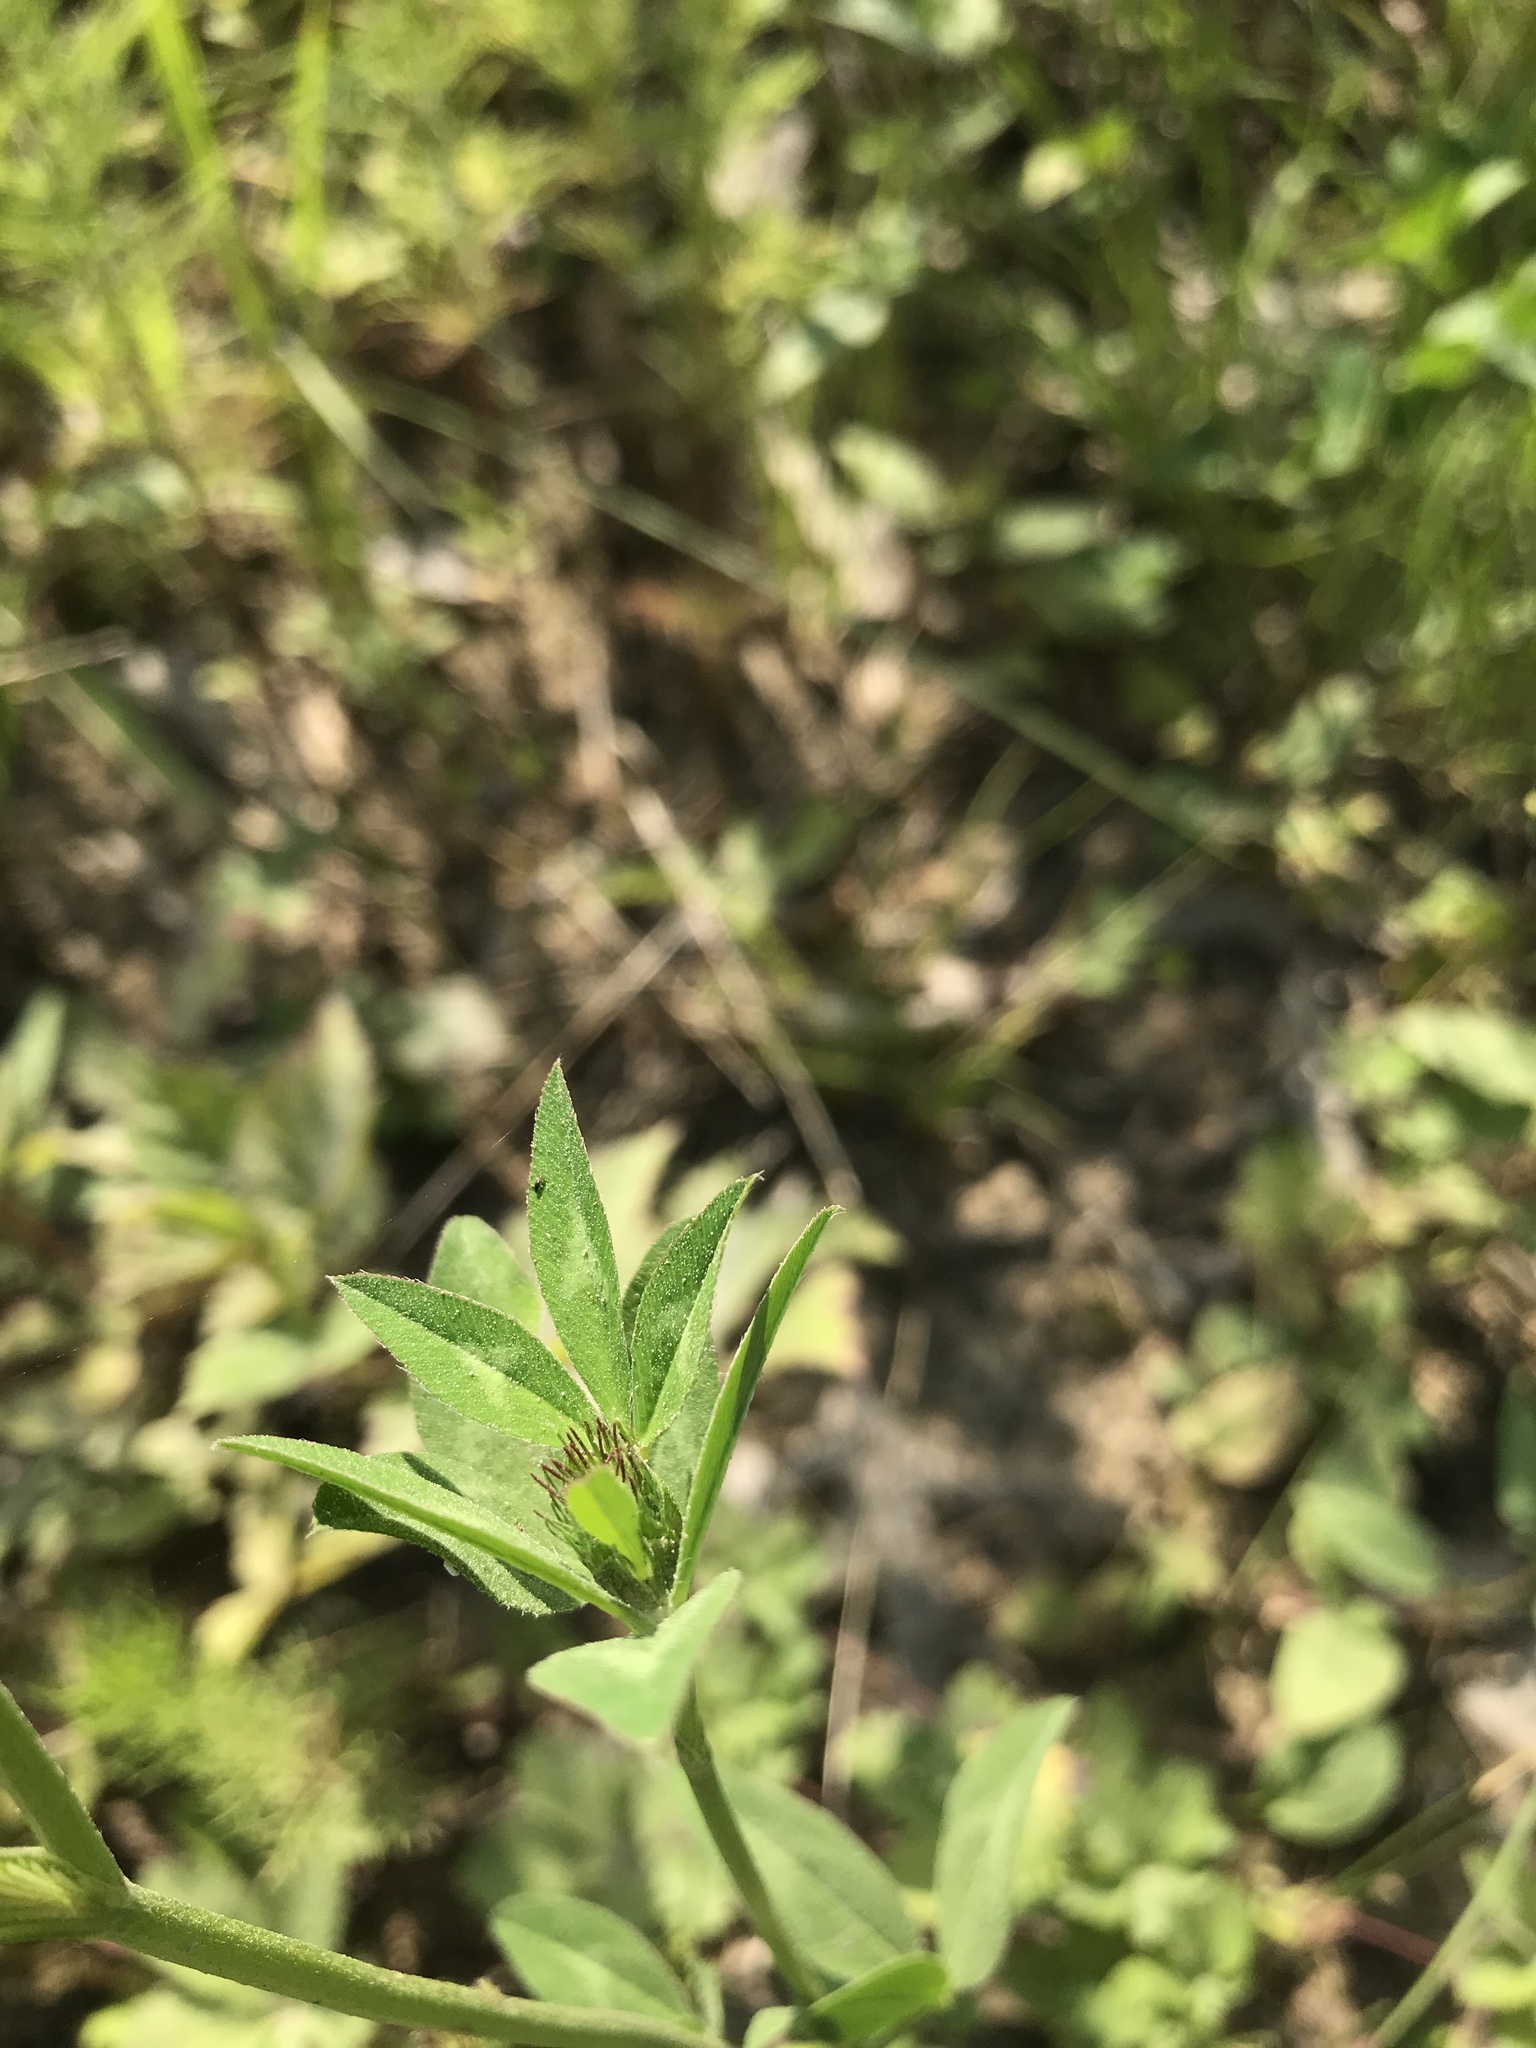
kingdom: Plantae
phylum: Tracheophyta
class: Magnoliopsida
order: Fabales
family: Fabaceae
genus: Trifolium
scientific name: Trifolium pratense
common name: Red clover
